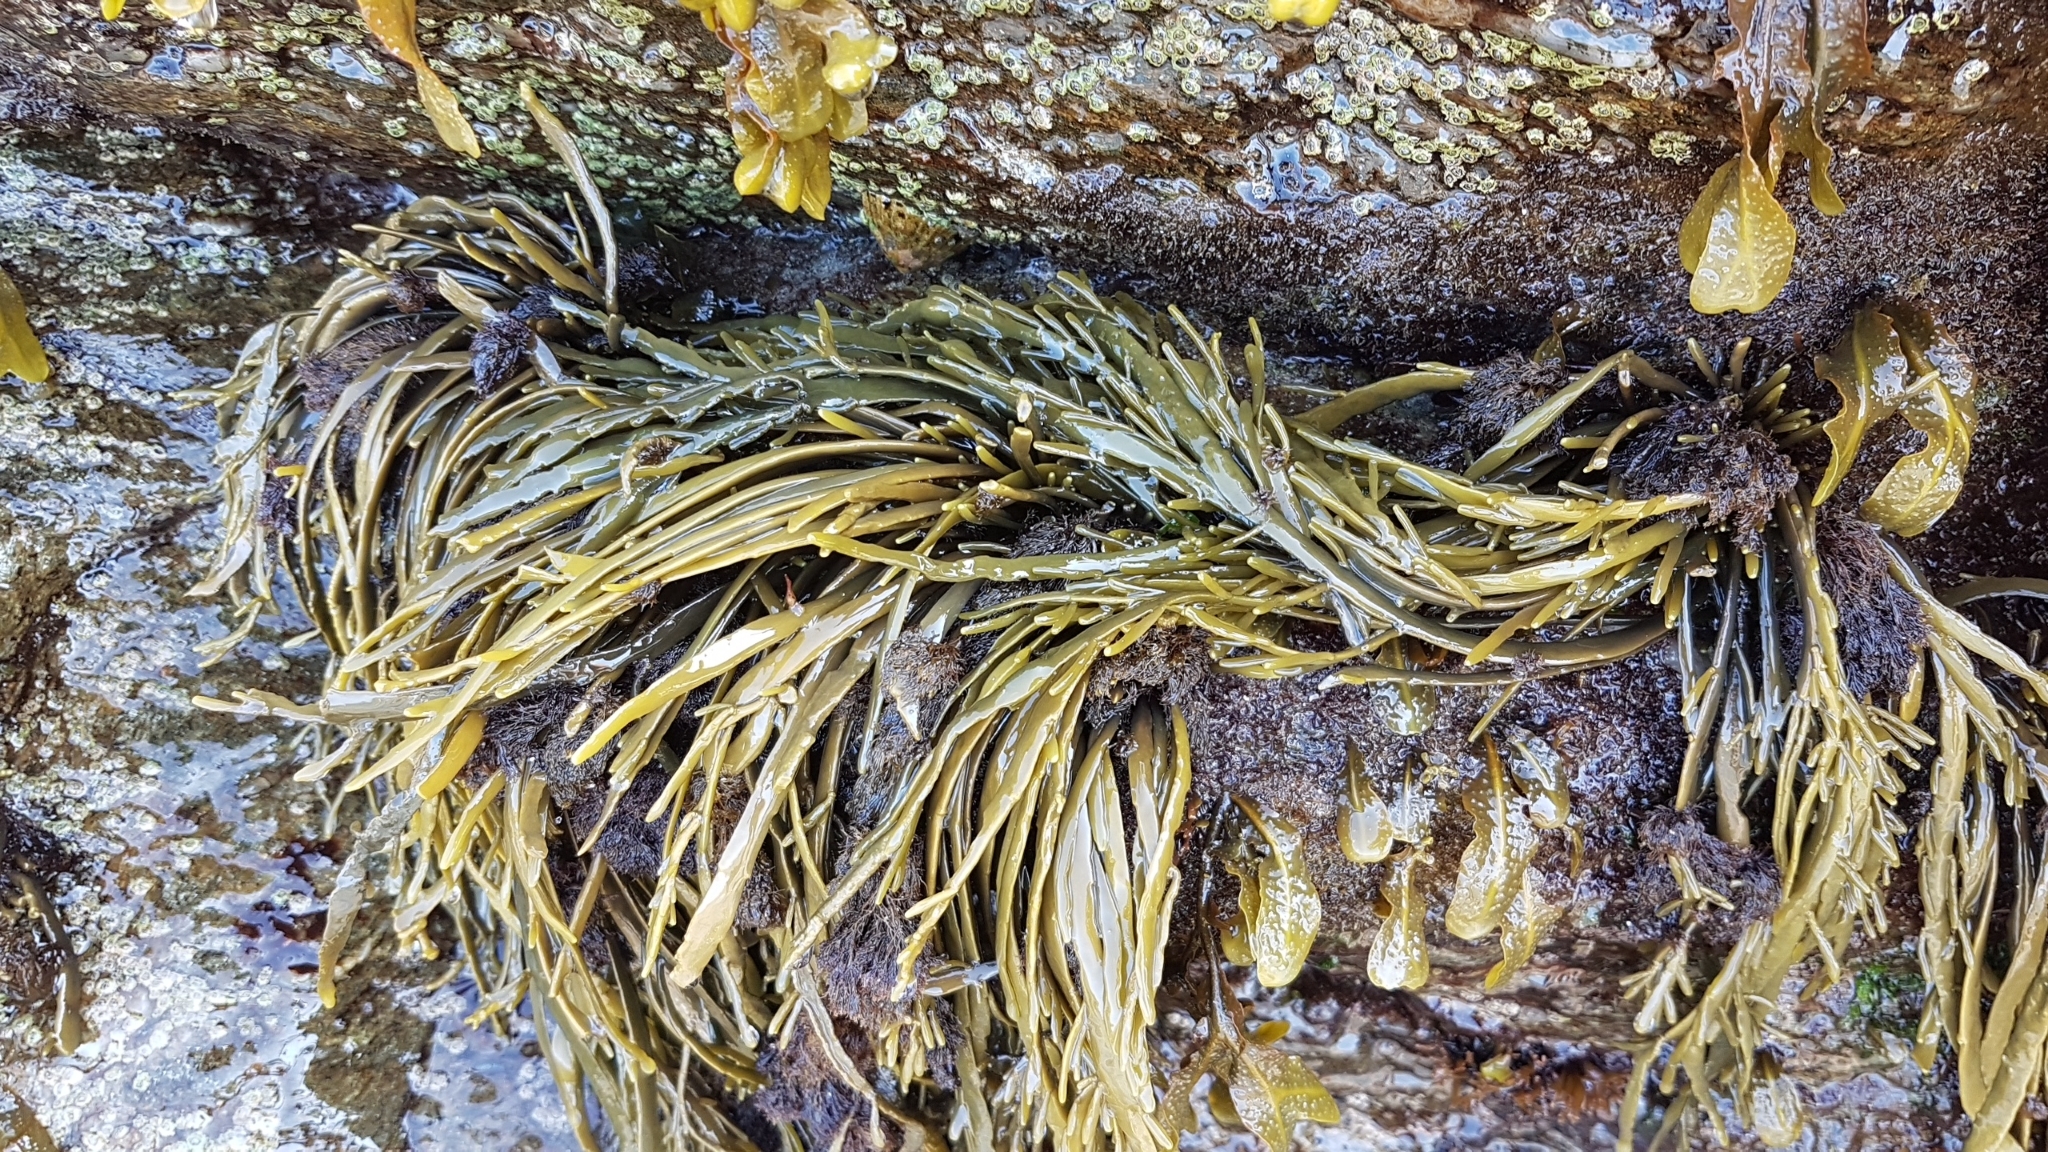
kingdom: Chromista
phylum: Ochrophyta
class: Phaeophyceae
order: Fucales
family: Fucaceae
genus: Ascophyllum
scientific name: Ascophyllum nodosum
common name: Knotted wrack
